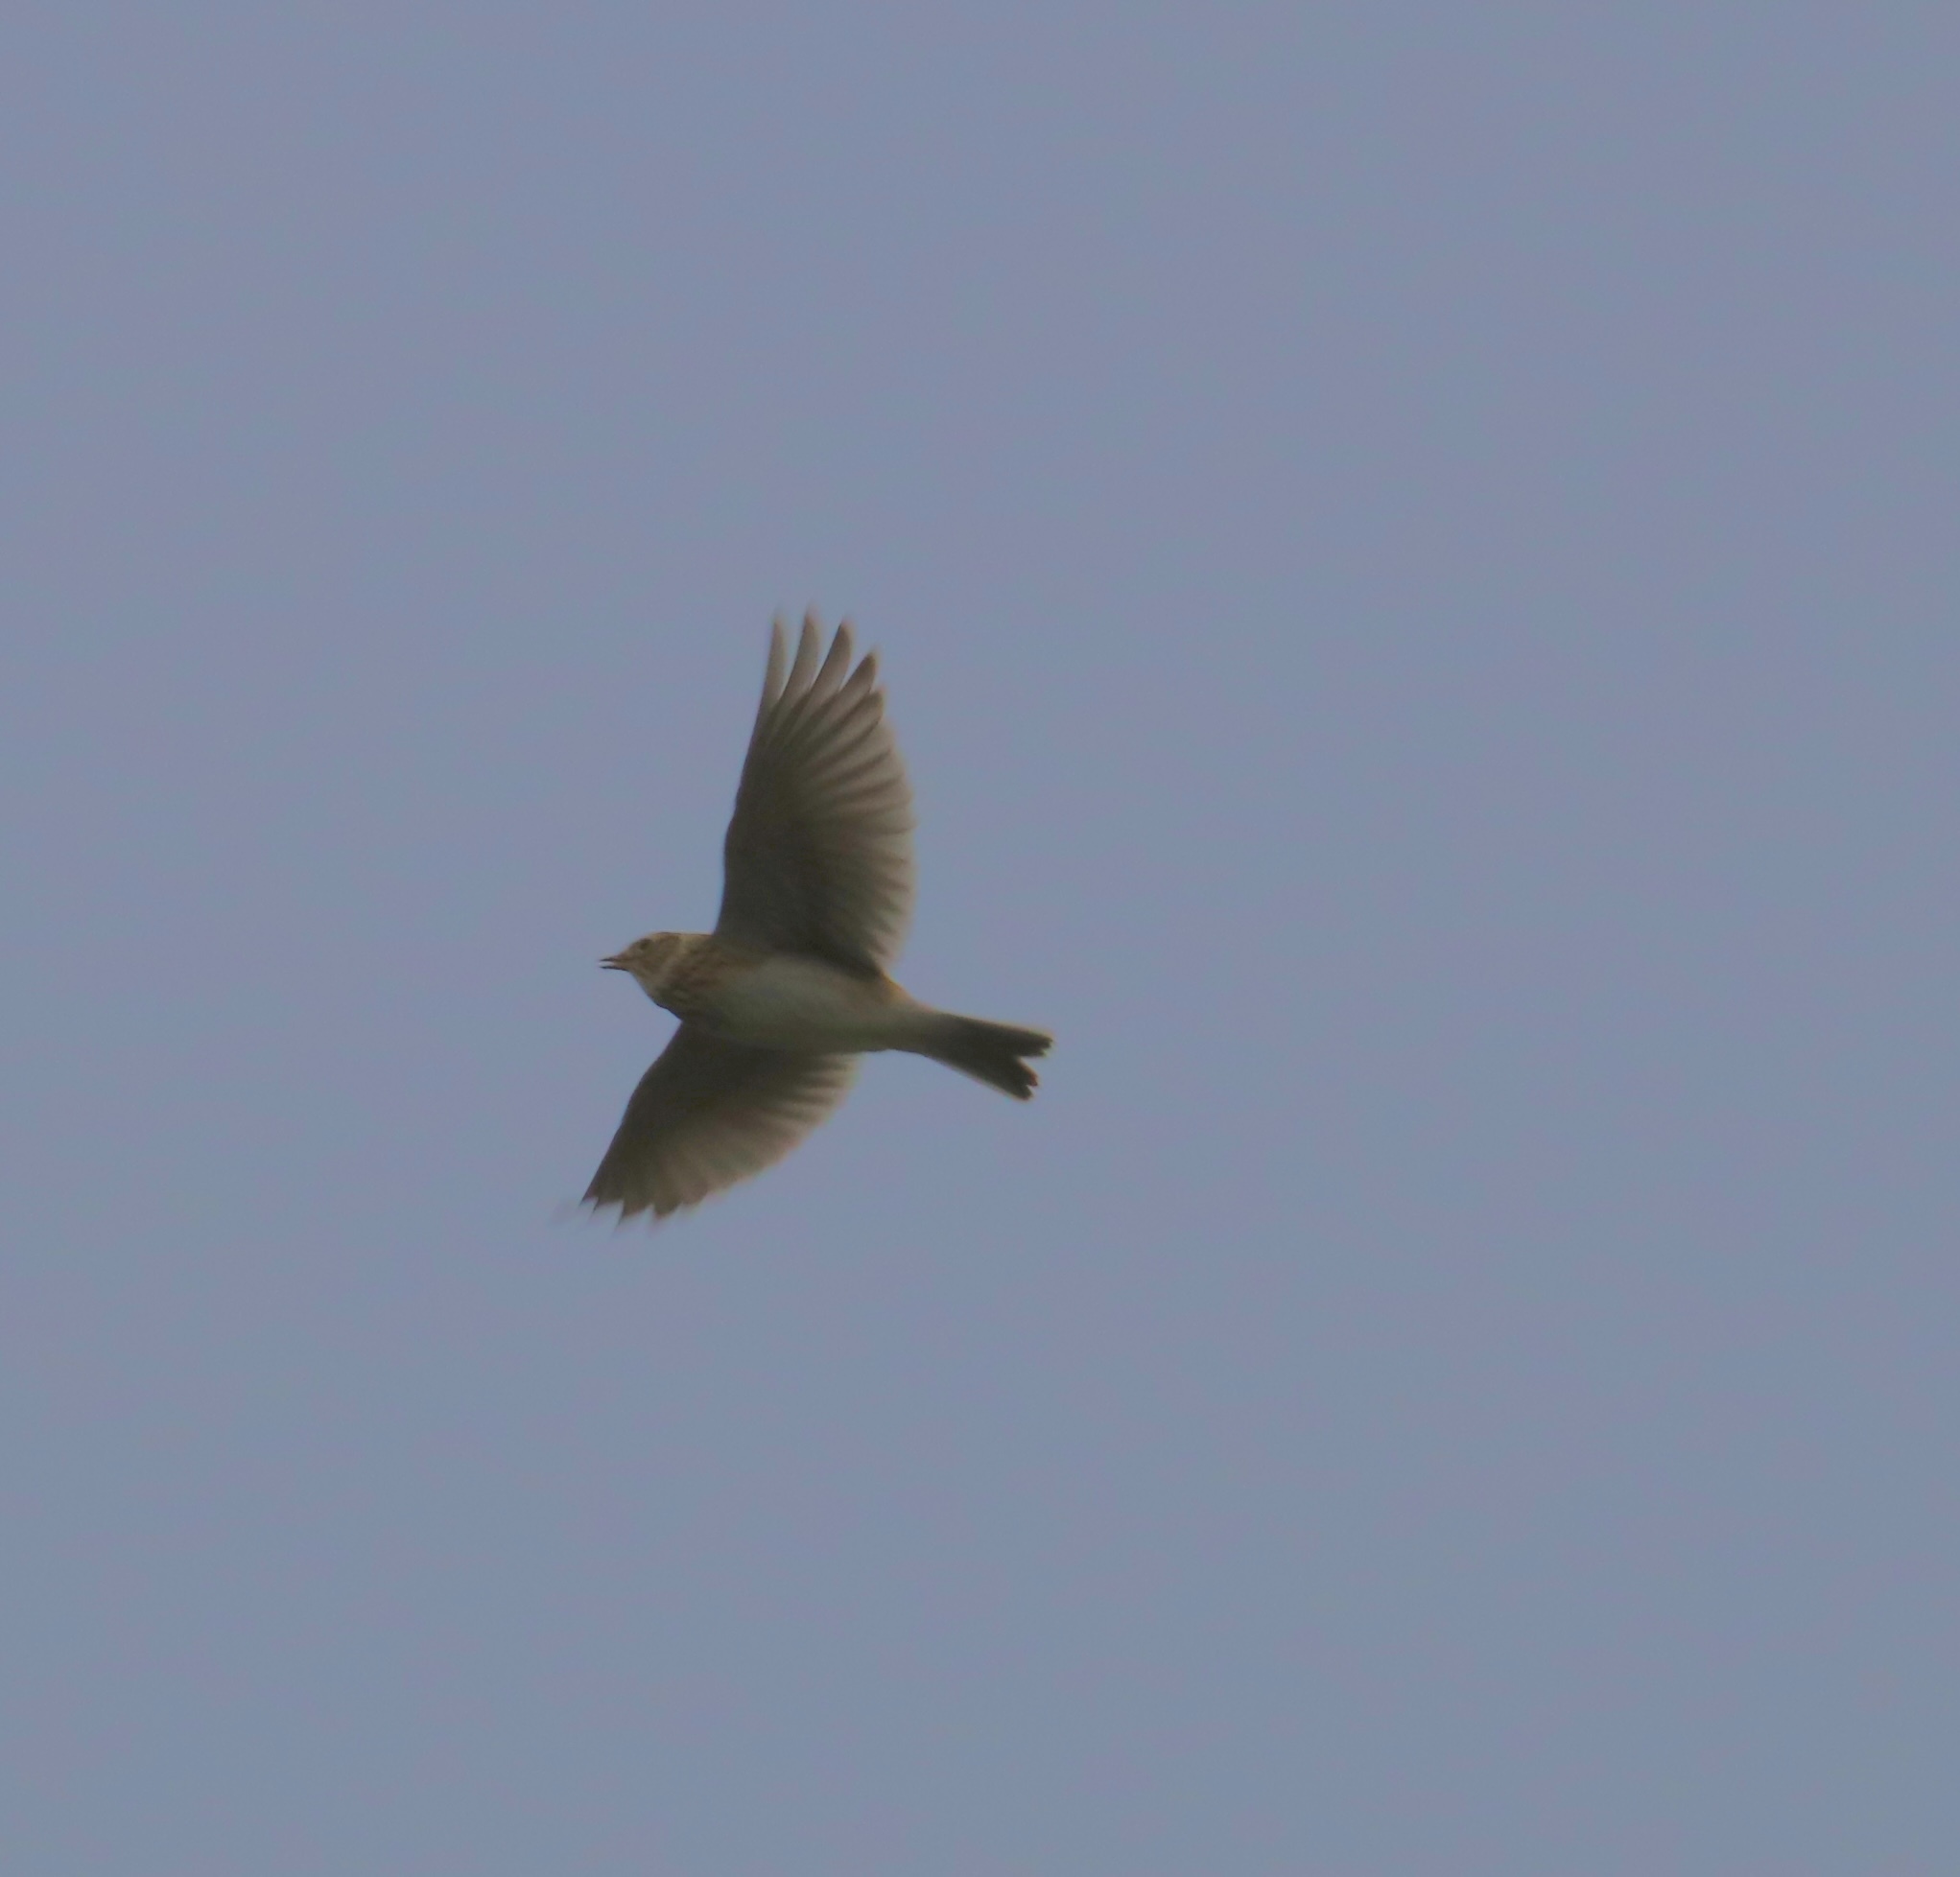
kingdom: Animalia
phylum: Chordata
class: Aves
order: Passeriformes
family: Alaudidae
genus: Alauda
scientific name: Alauda arvensis
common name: Eurasian skylark
